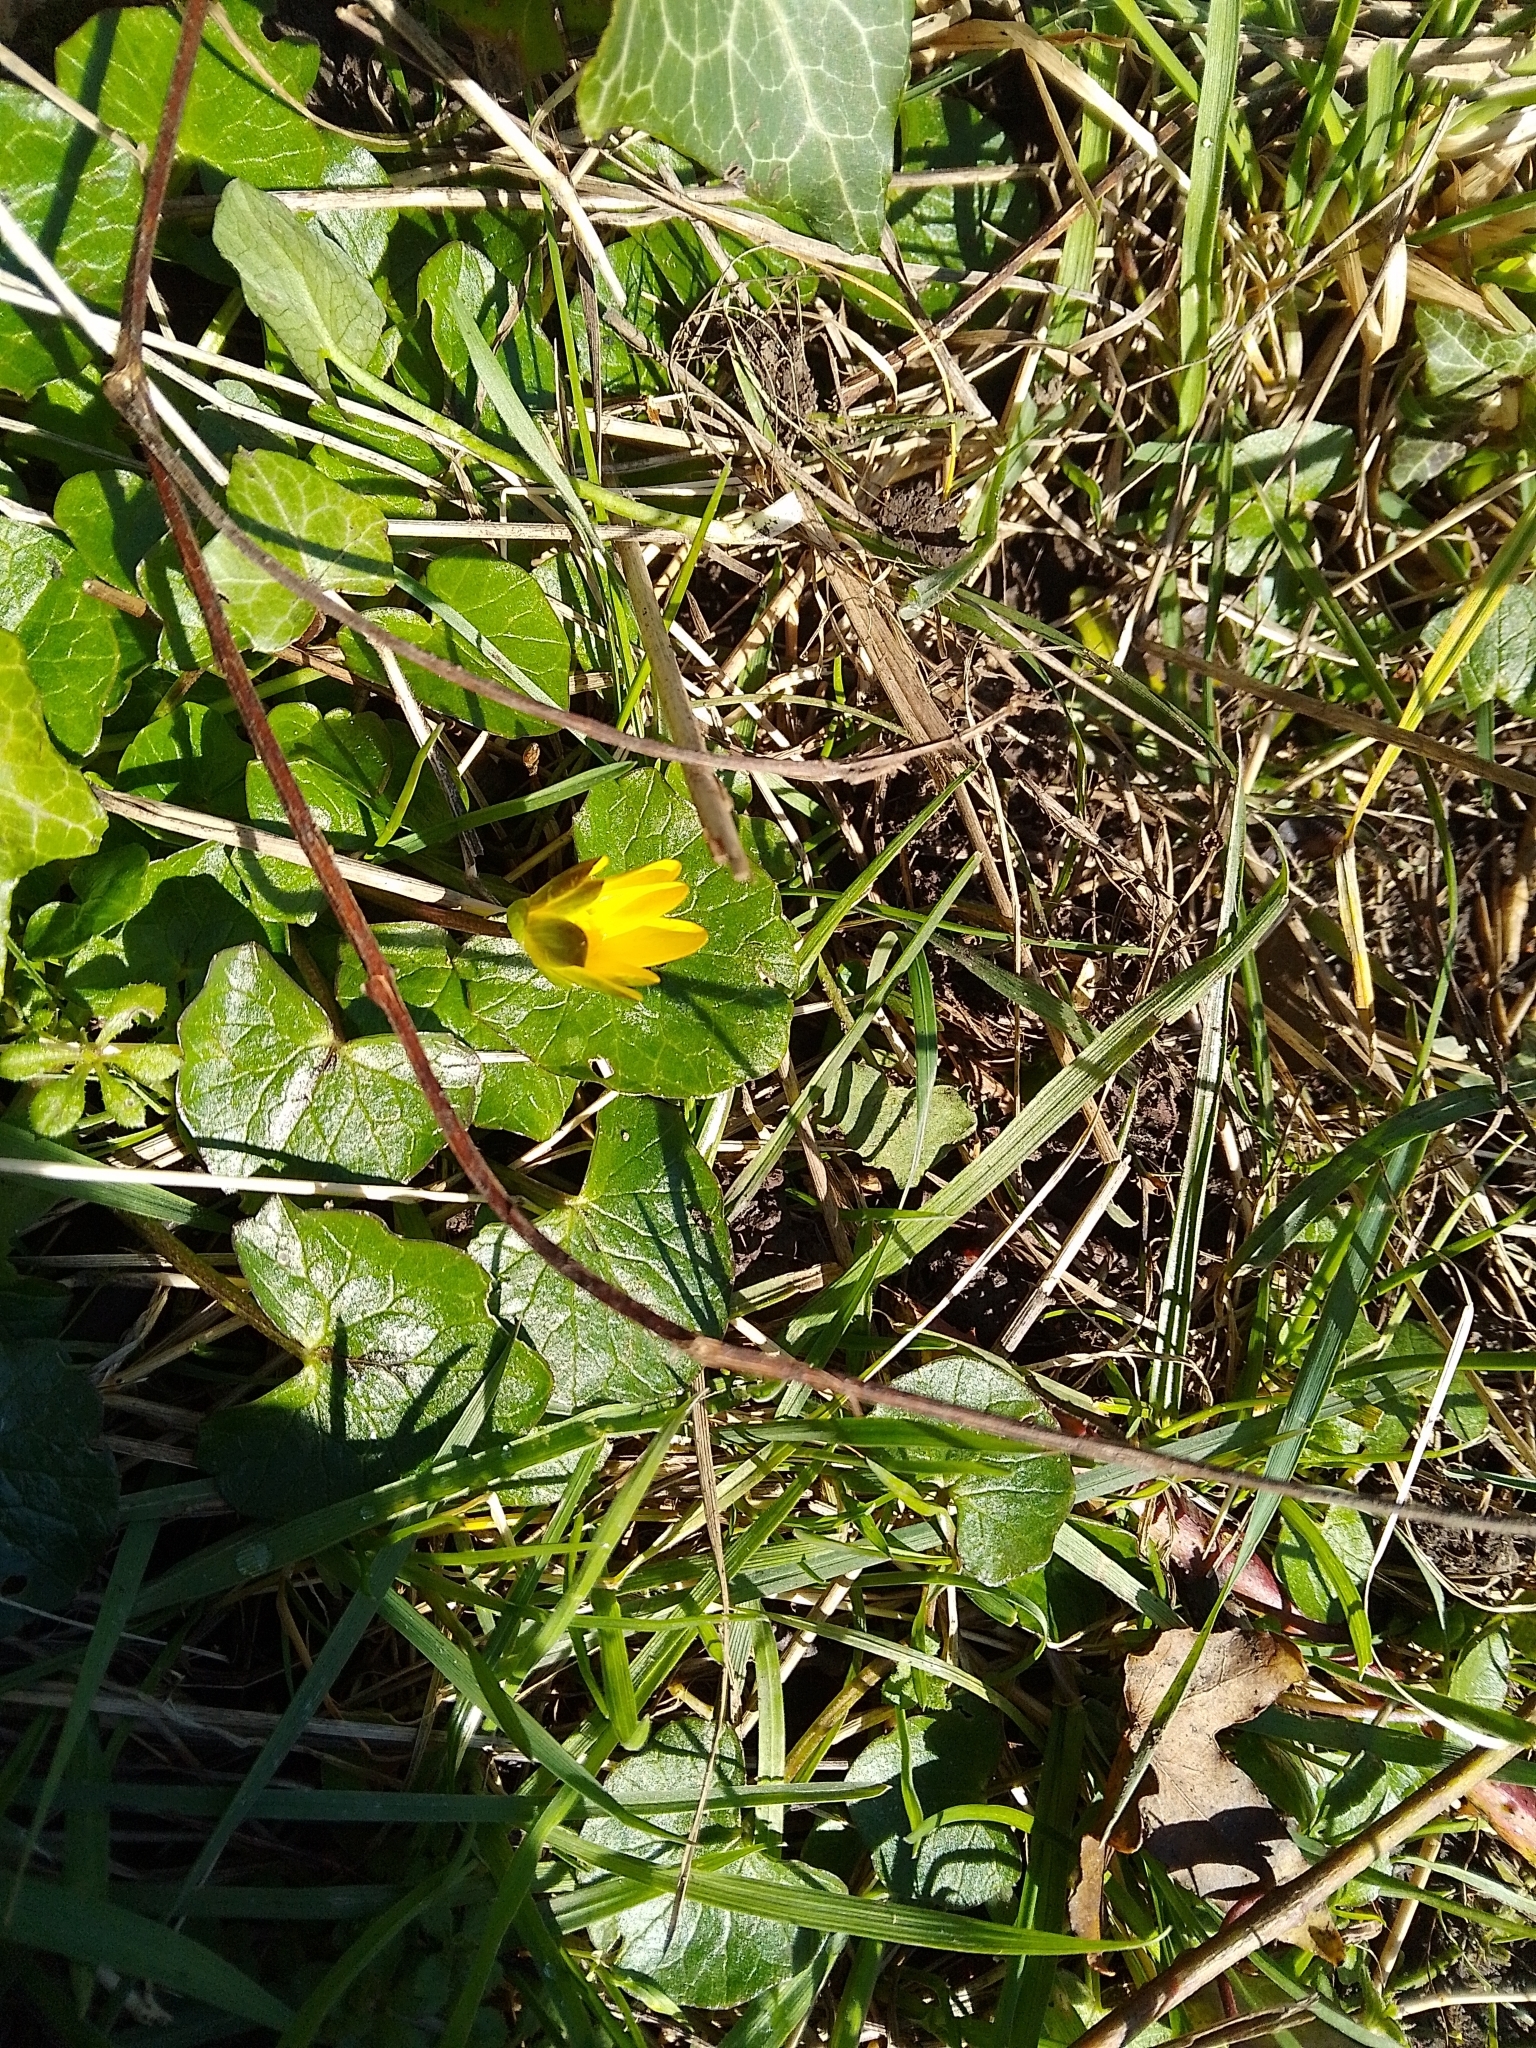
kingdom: Plantae
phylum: Tracheophyta
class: Magnoliopsida
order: Ranunculales
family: Ranunculaceae
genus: Ficaria
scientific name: Ficaria verna
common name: Lesser celandine
